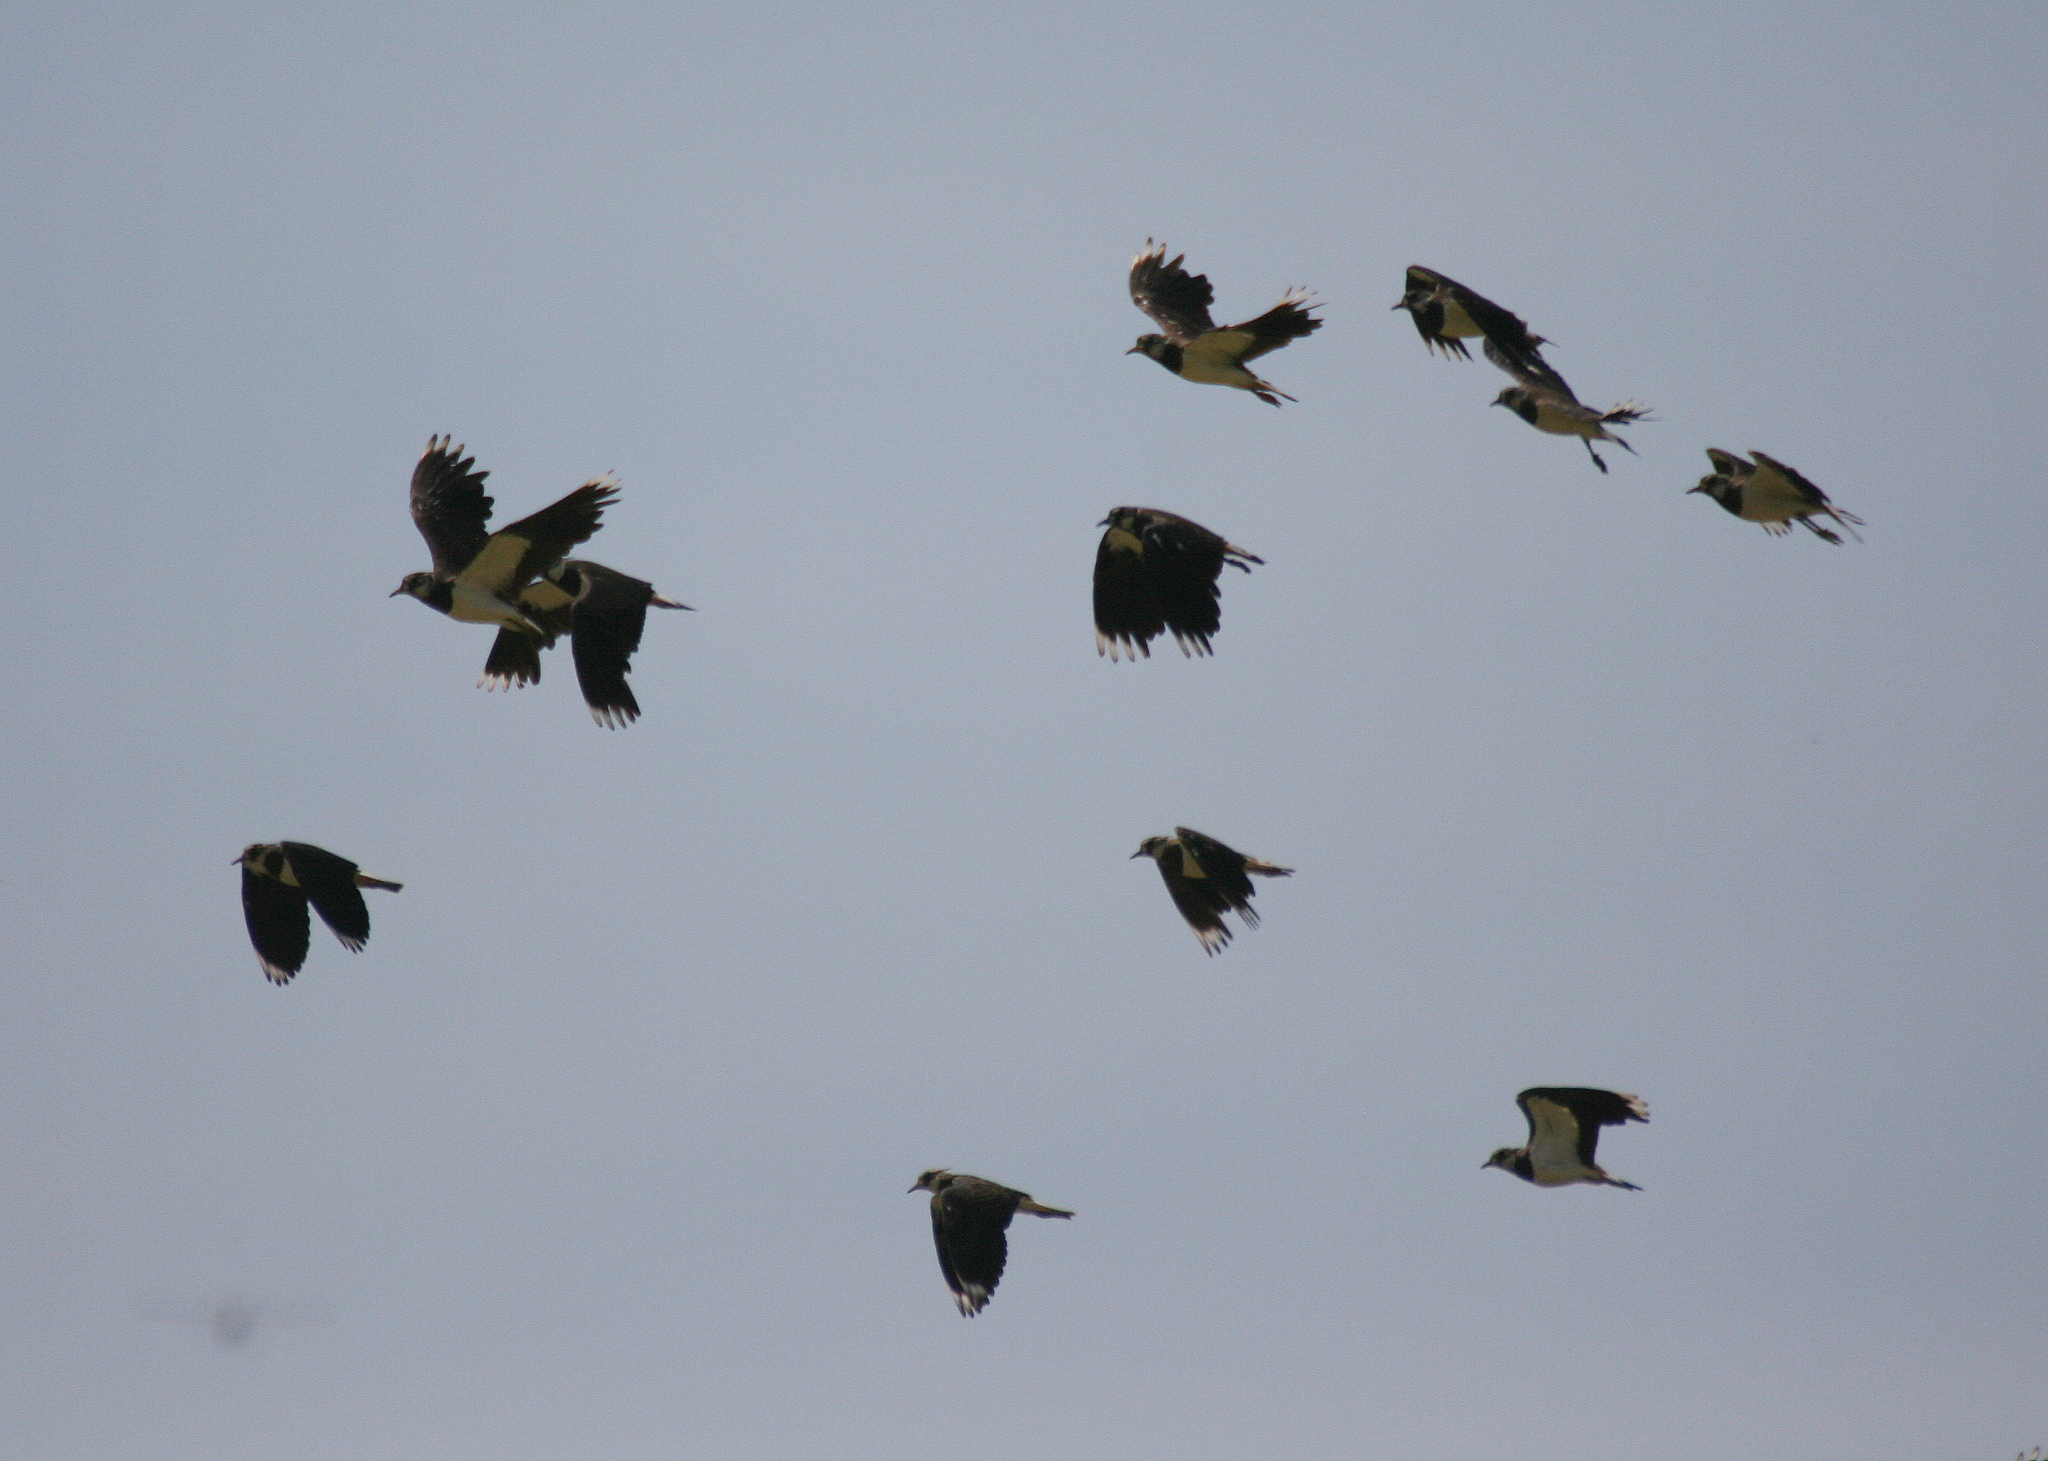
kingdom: Animalia
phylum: Chordata
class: Aves
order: Charadriiformes
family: Charadriidae
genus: Vanellus
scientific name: Vanellus vanellus
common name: Northern lapwing
